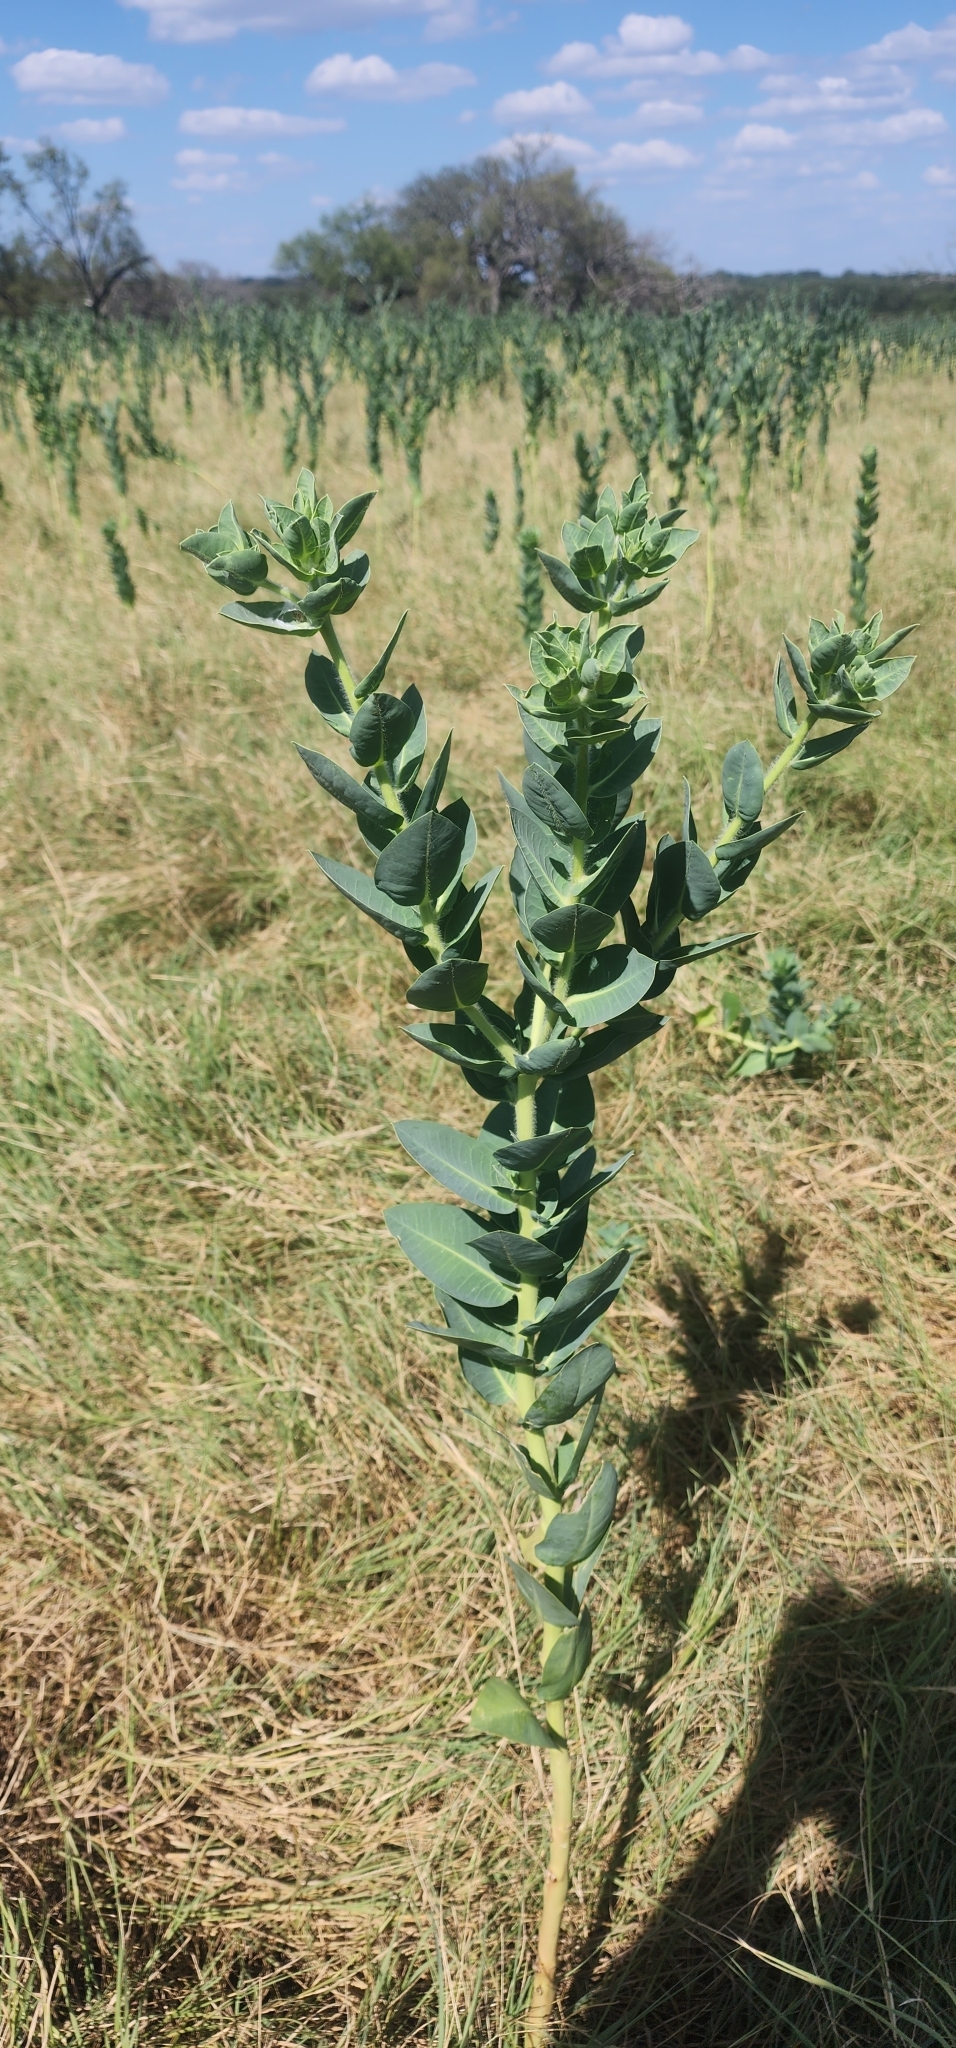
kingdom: Plantae
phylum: Tracheophyta
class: Magnoliopsida
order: Malpighiales
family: Euphorbiaceae
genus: Euphorbia
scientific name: Euphorbia marginata
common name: Ghostweed
